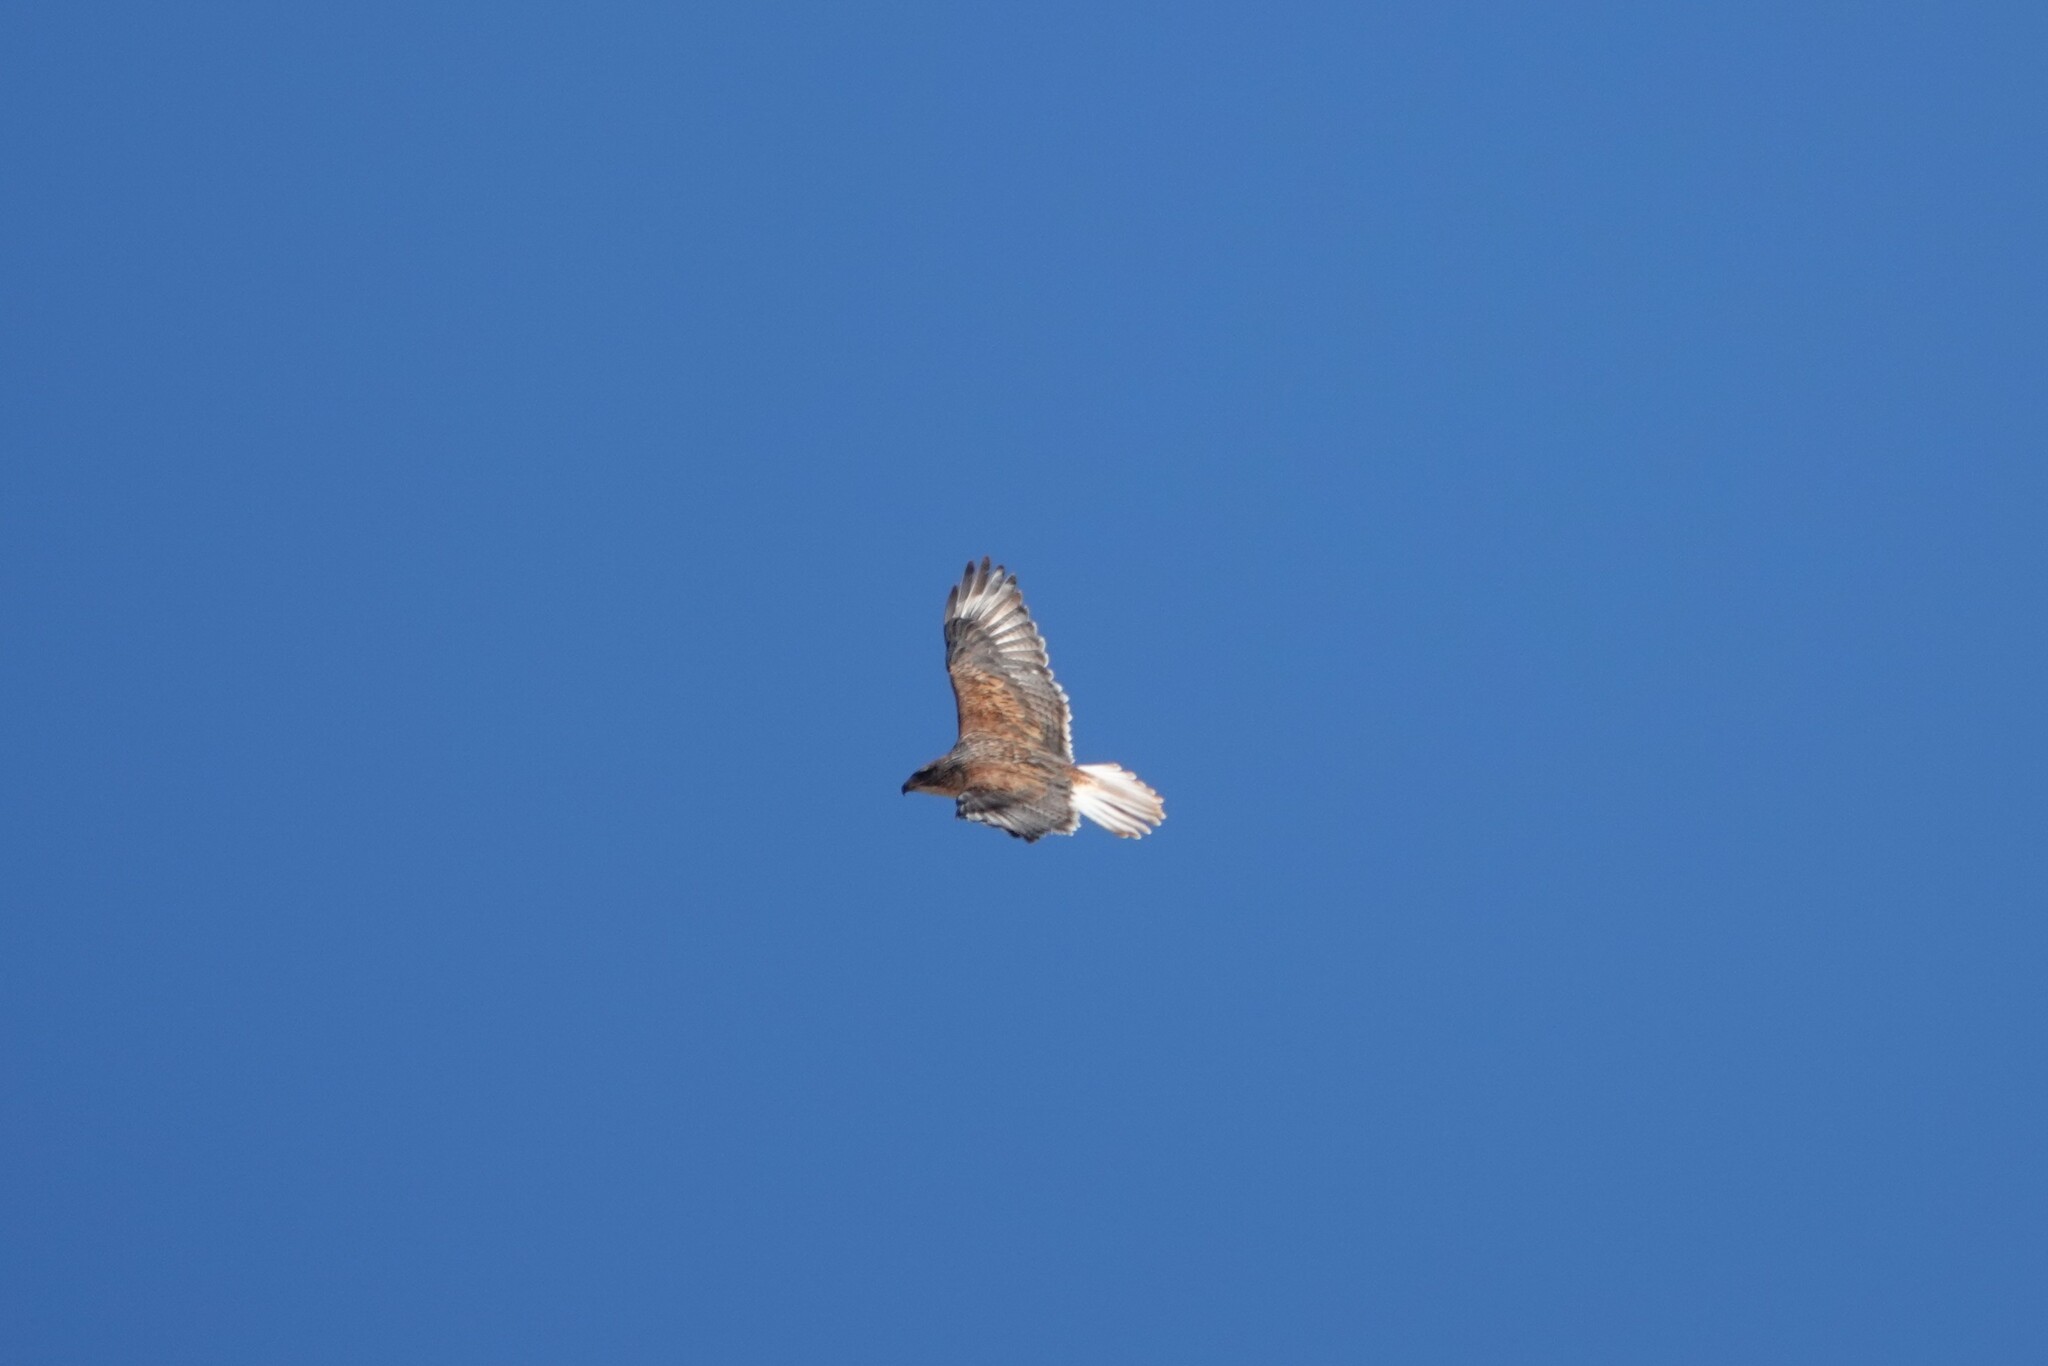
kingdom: Animalia
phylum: Chordata
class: Aves
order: Accipitriformes
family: Accipitridae
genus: Buteo
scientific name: Buteo regalis
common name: Ferruginous hawk
